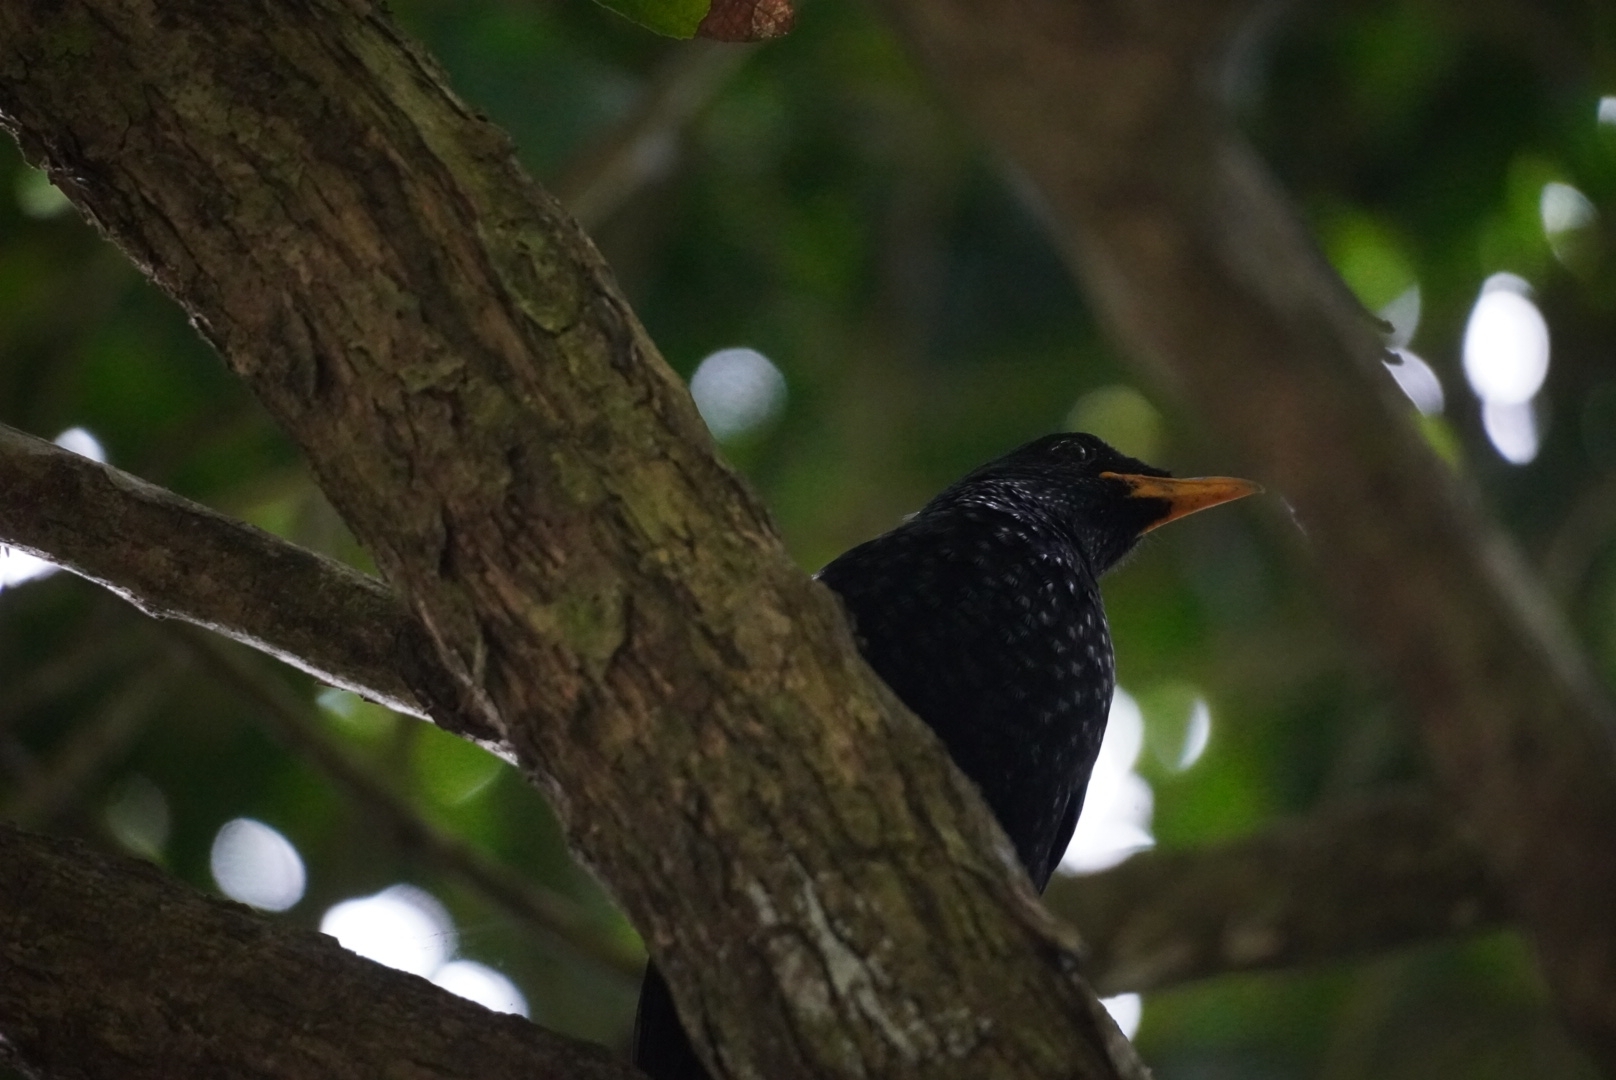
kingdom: Animalia
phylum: Chordata
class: Aves
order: Passeriformes
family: Muscicapidae
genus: Myophonus
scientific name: Myophonus caeruleus
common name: Blue whistling-thrush
